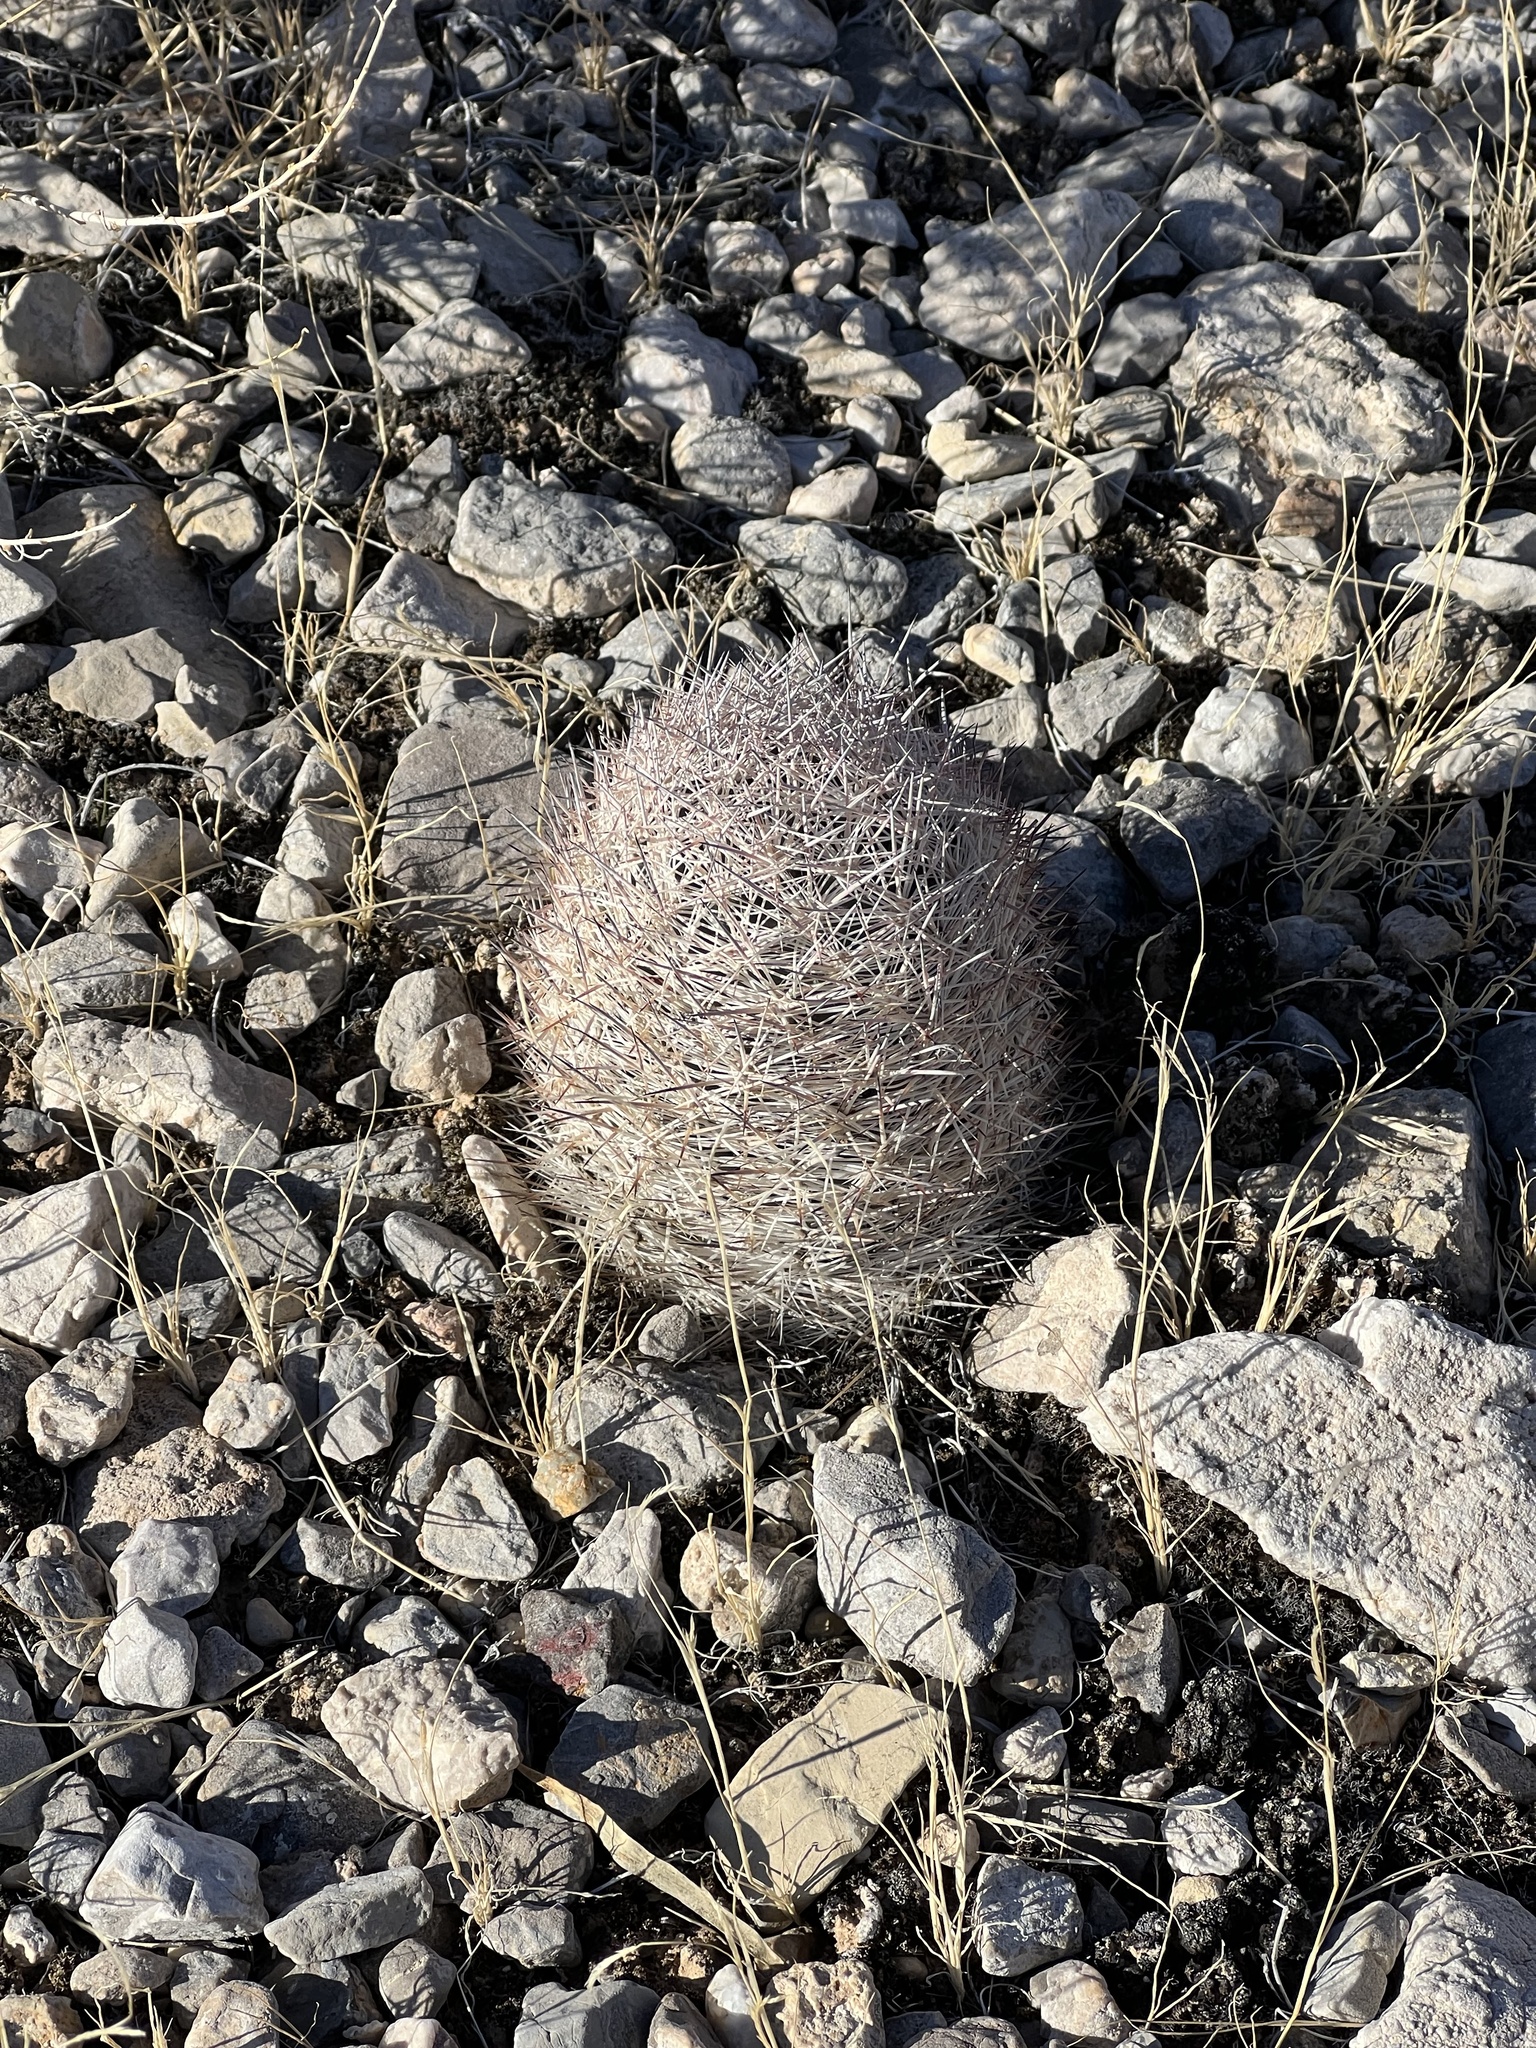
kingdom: Plantae
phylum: Tracheophyta
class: Magnoliopsida
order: Caryophyllales
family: Cactaceae
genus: Pelecyphora
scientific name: Pelecyphora dasyacantha
